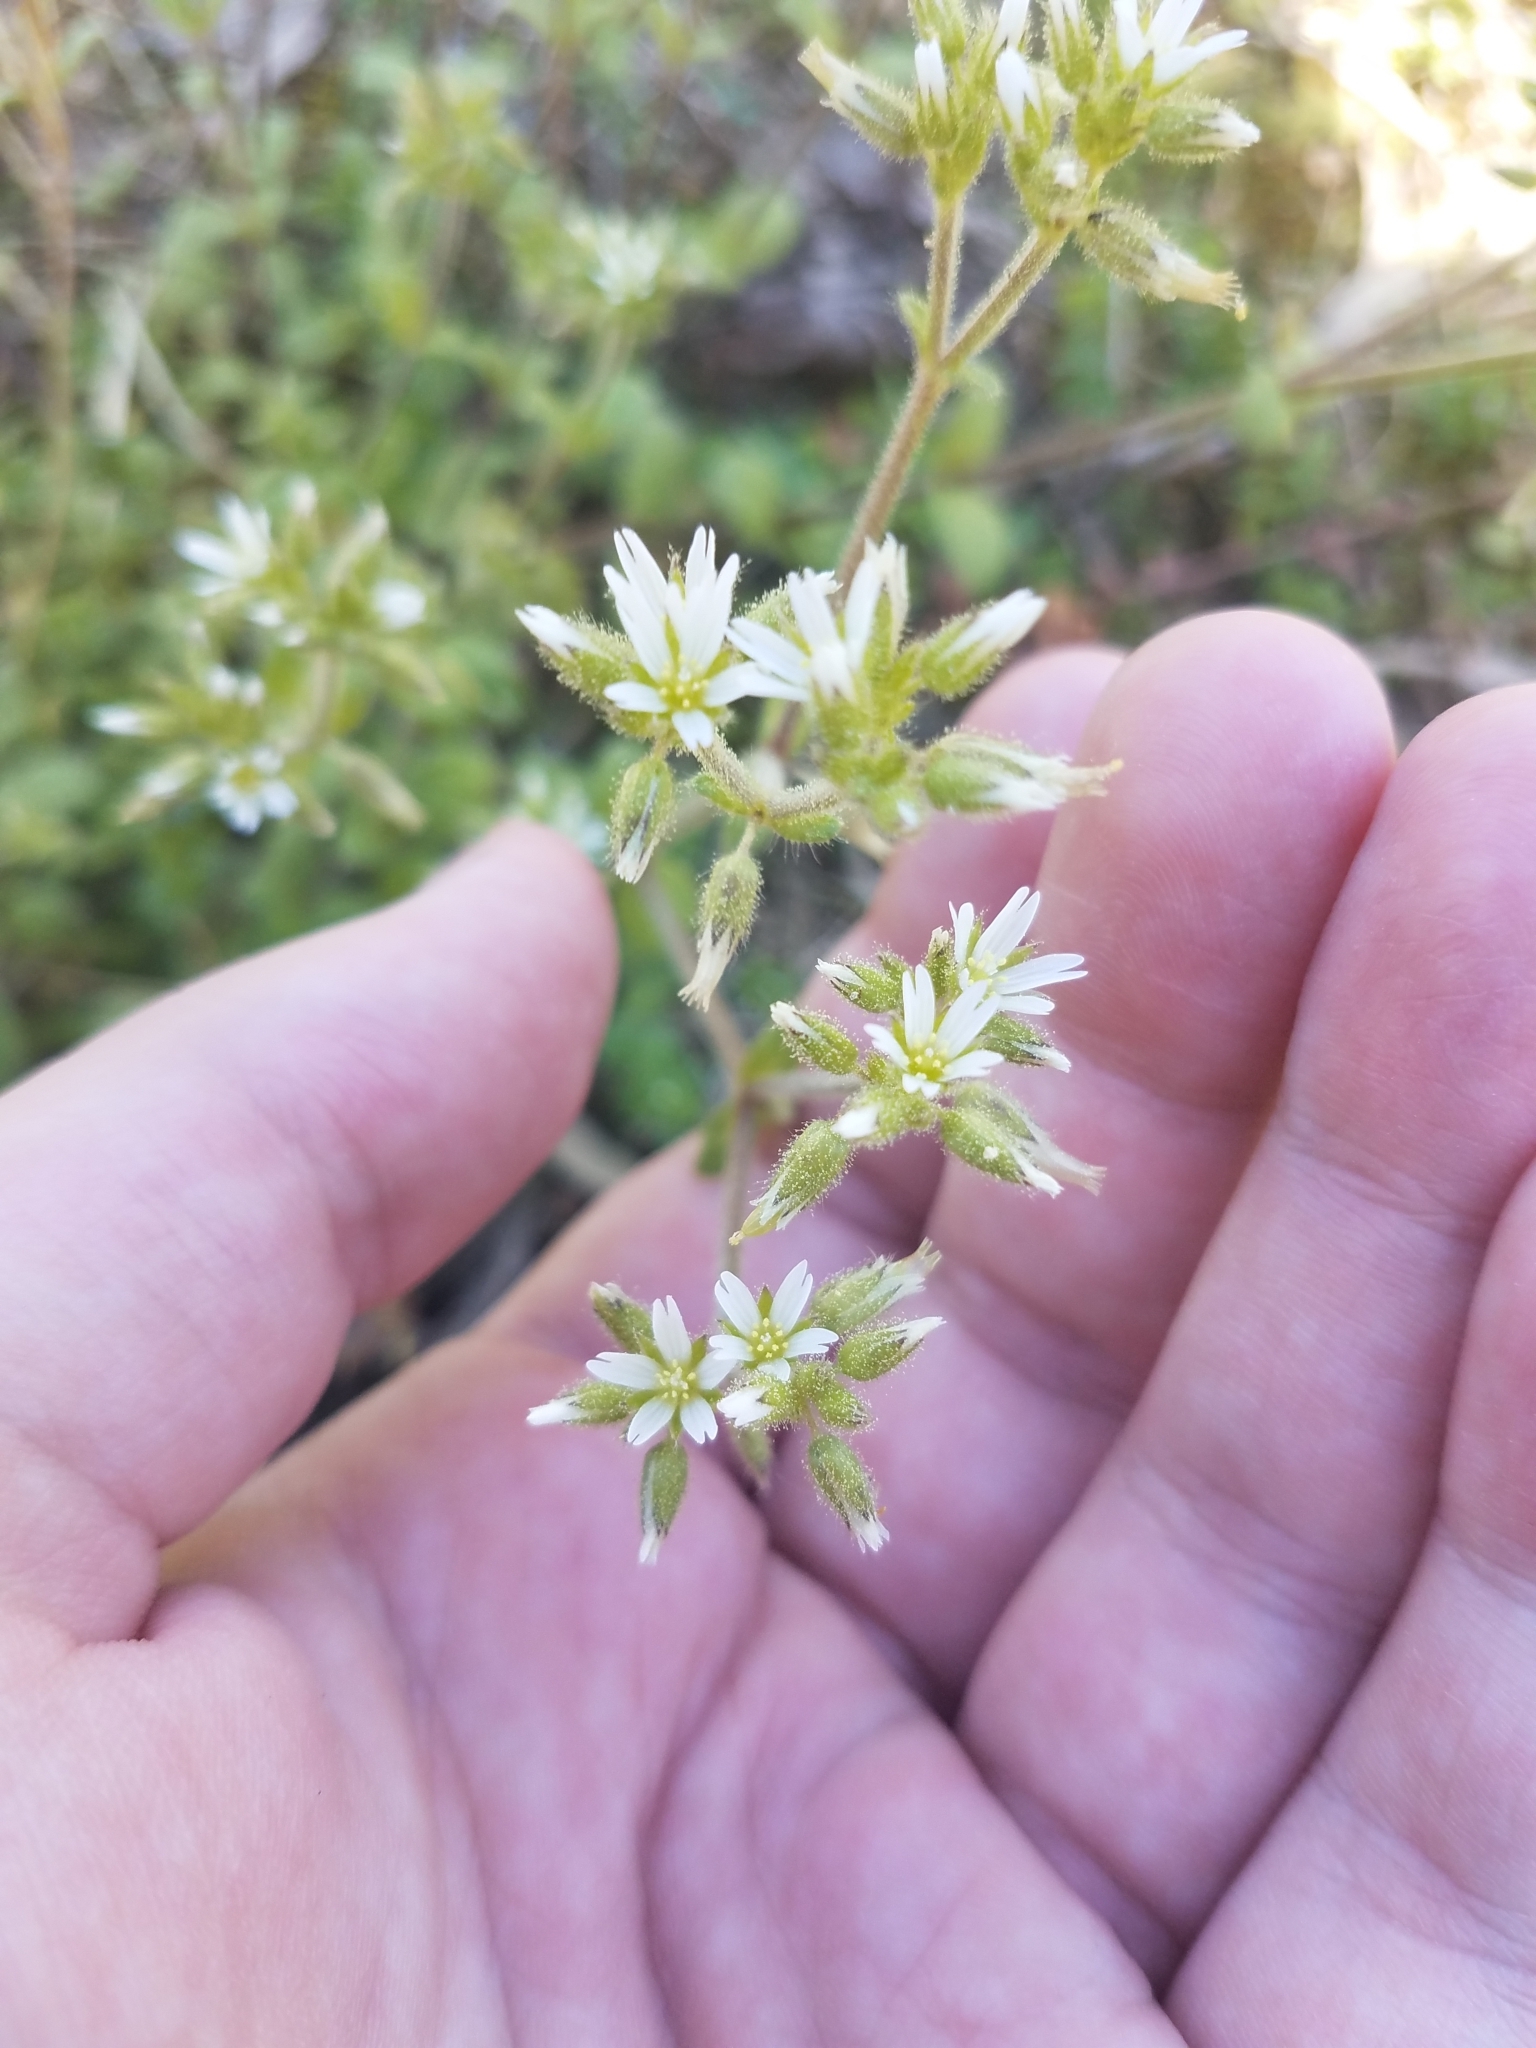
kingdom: Plantae
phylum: Tracheophyta
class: Magnoliopsida
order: Caryophyllales
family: Caryophyllaceae
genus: Cerastium
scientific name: Cerastium glomeratum
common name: Sticky chickweed
